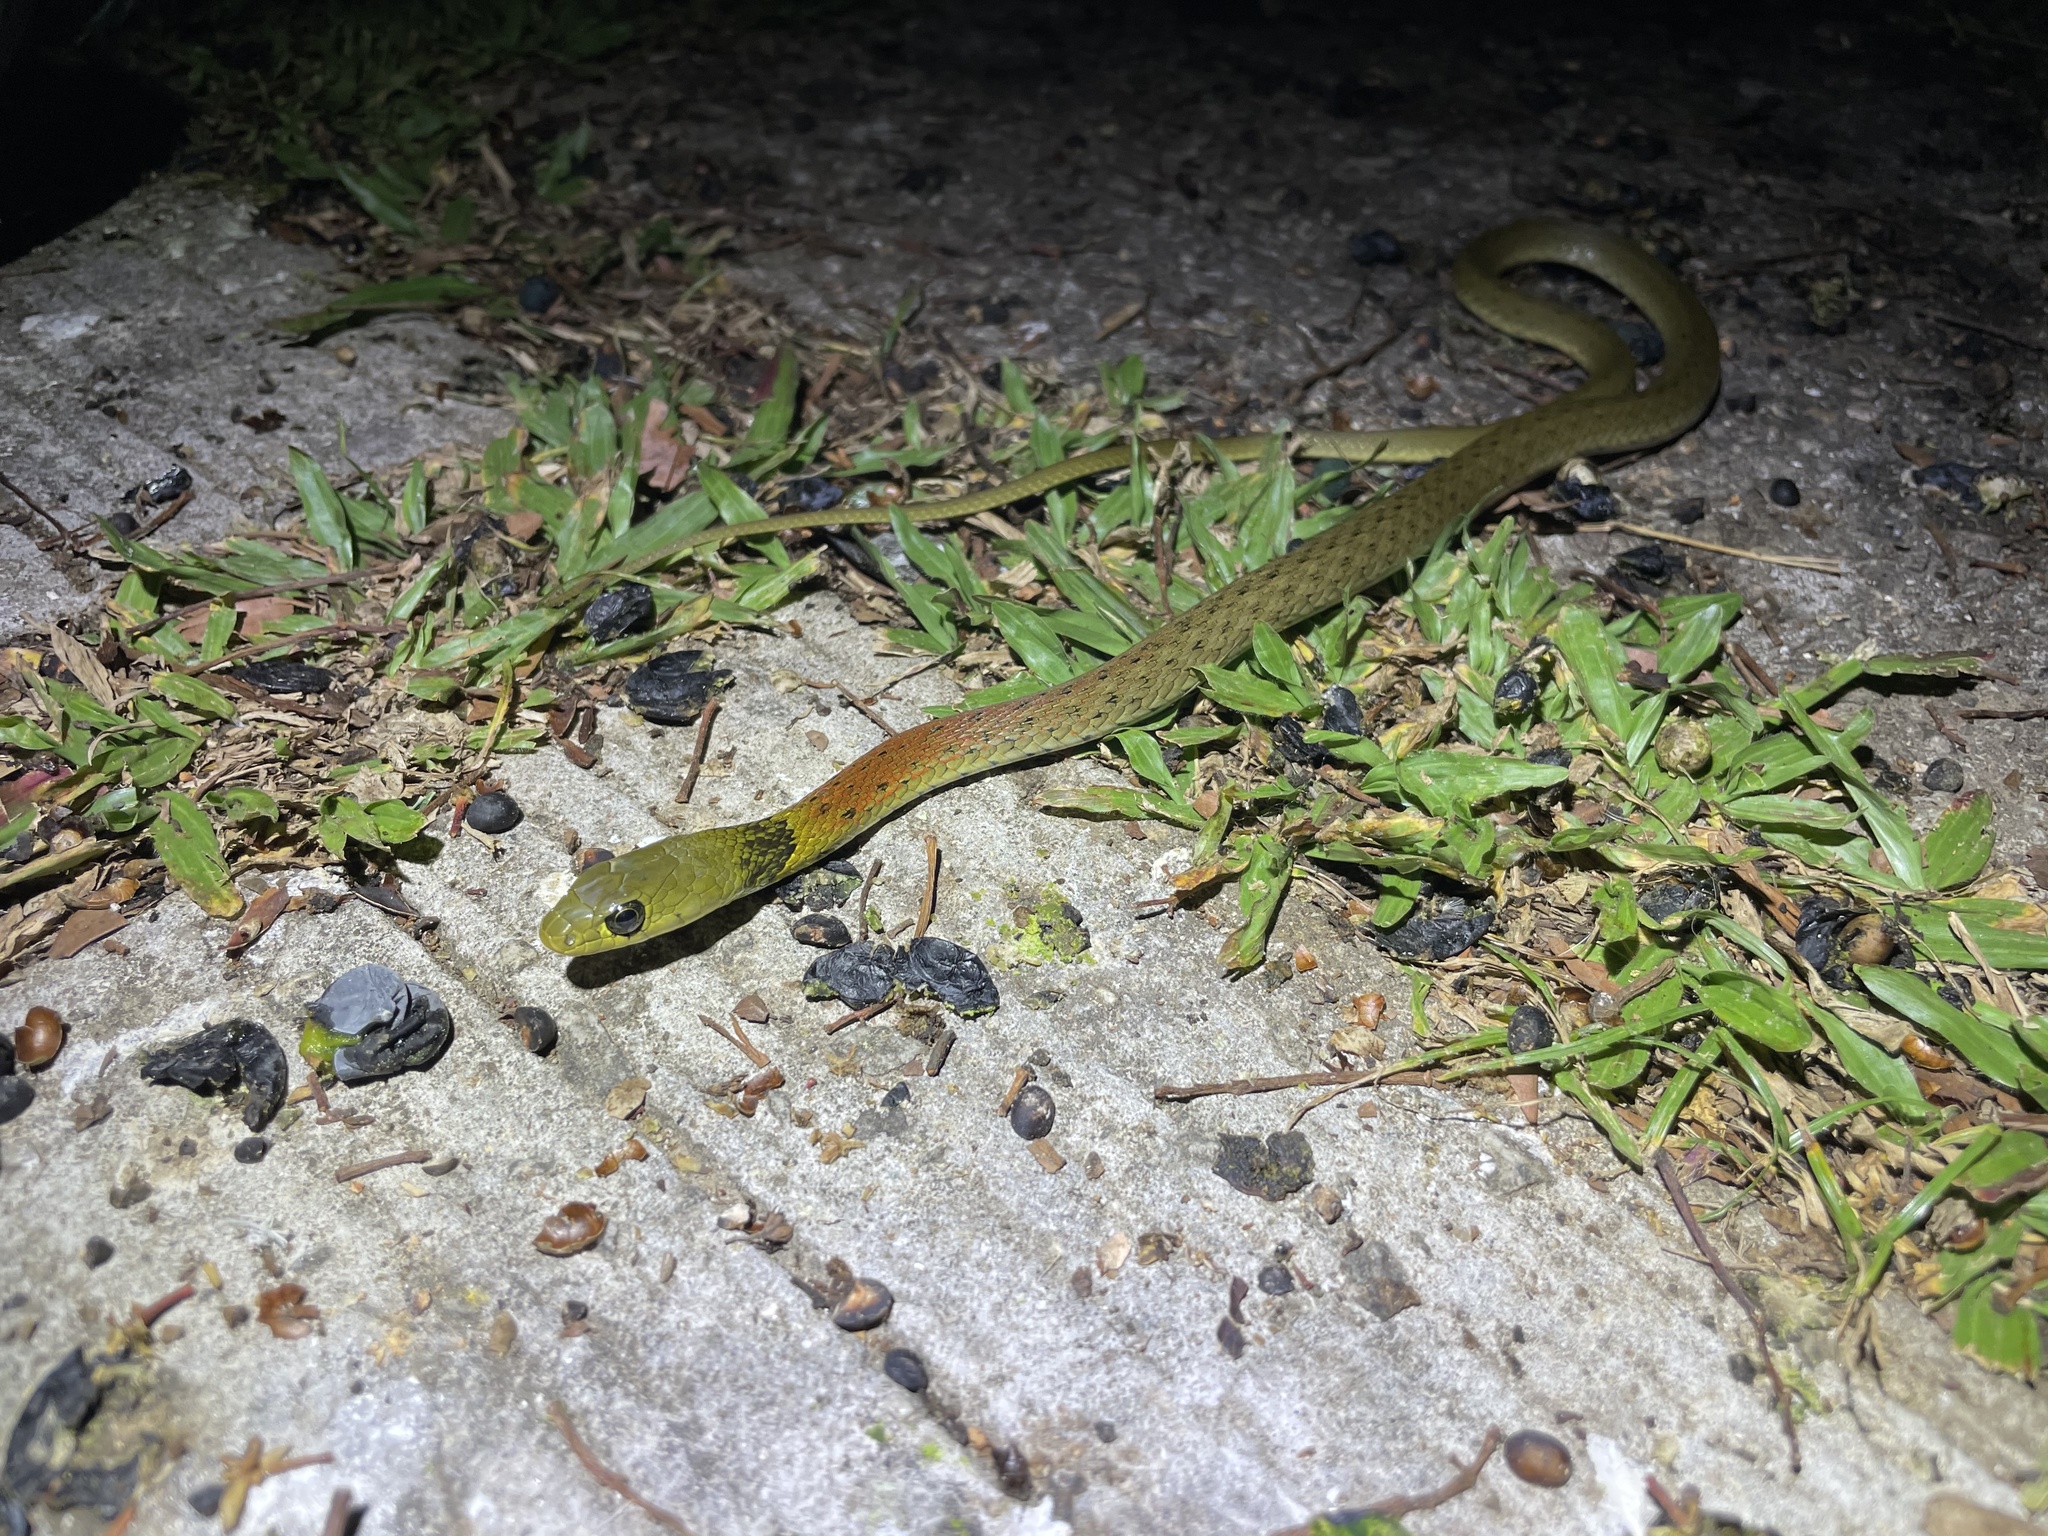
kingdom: Animalia
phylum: Chordata
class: Squamata
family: Colubridae
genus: Rhabdophis
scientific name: Rhabdophis helleri
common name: Heller’s red-necked keelback
